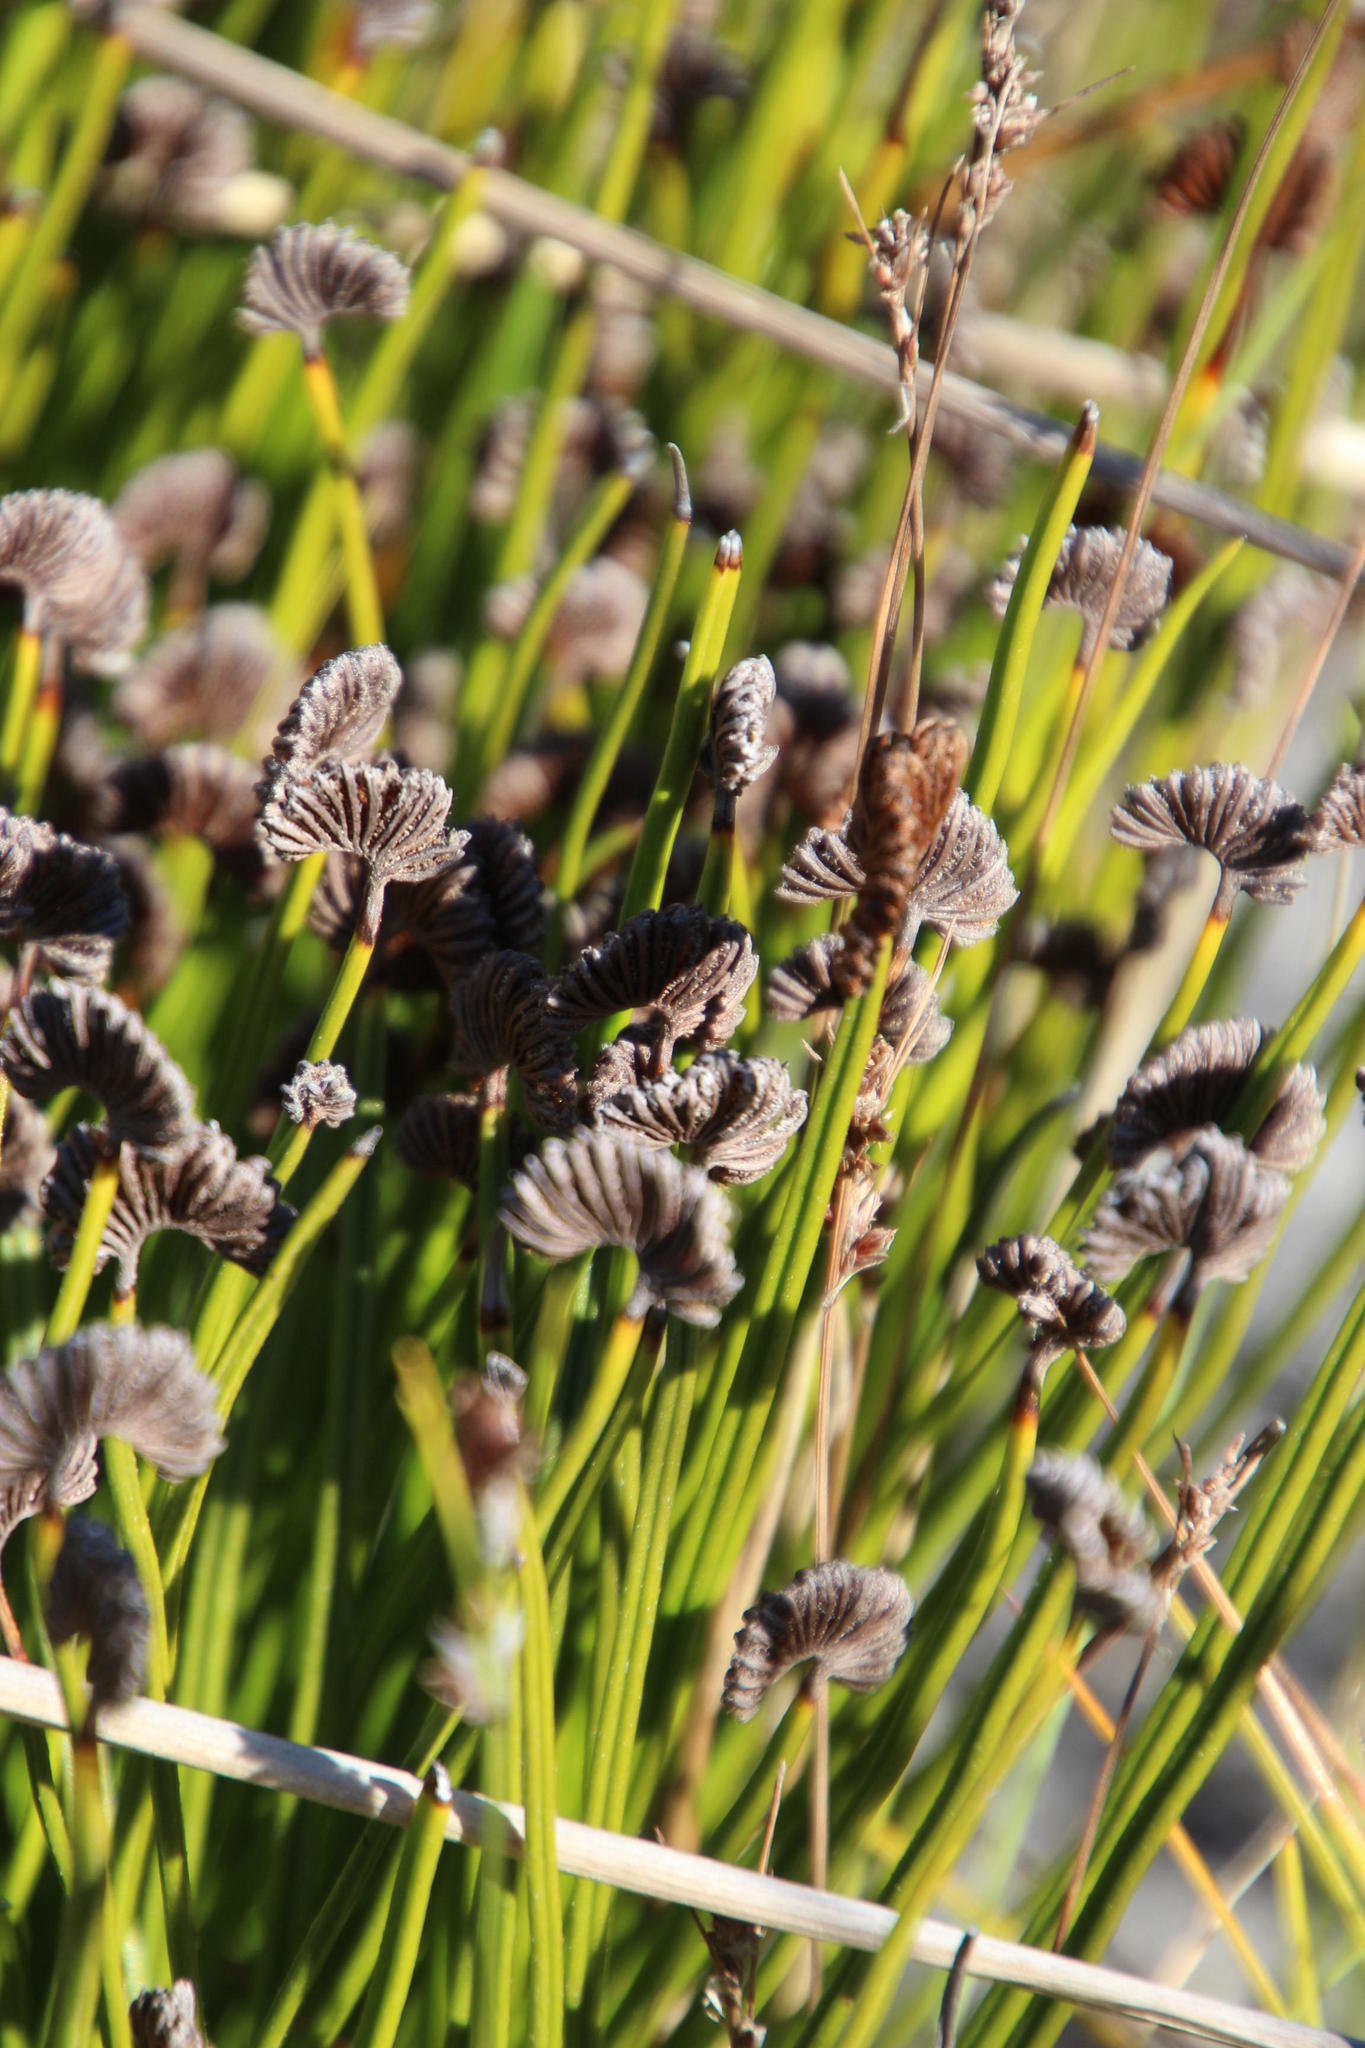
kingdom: Plantae
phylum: Tracheophyta
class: Polypodiopsida
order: Schizaeales
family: Schizaeaceae
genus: Schizaea
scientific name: Schizaea pectinata
